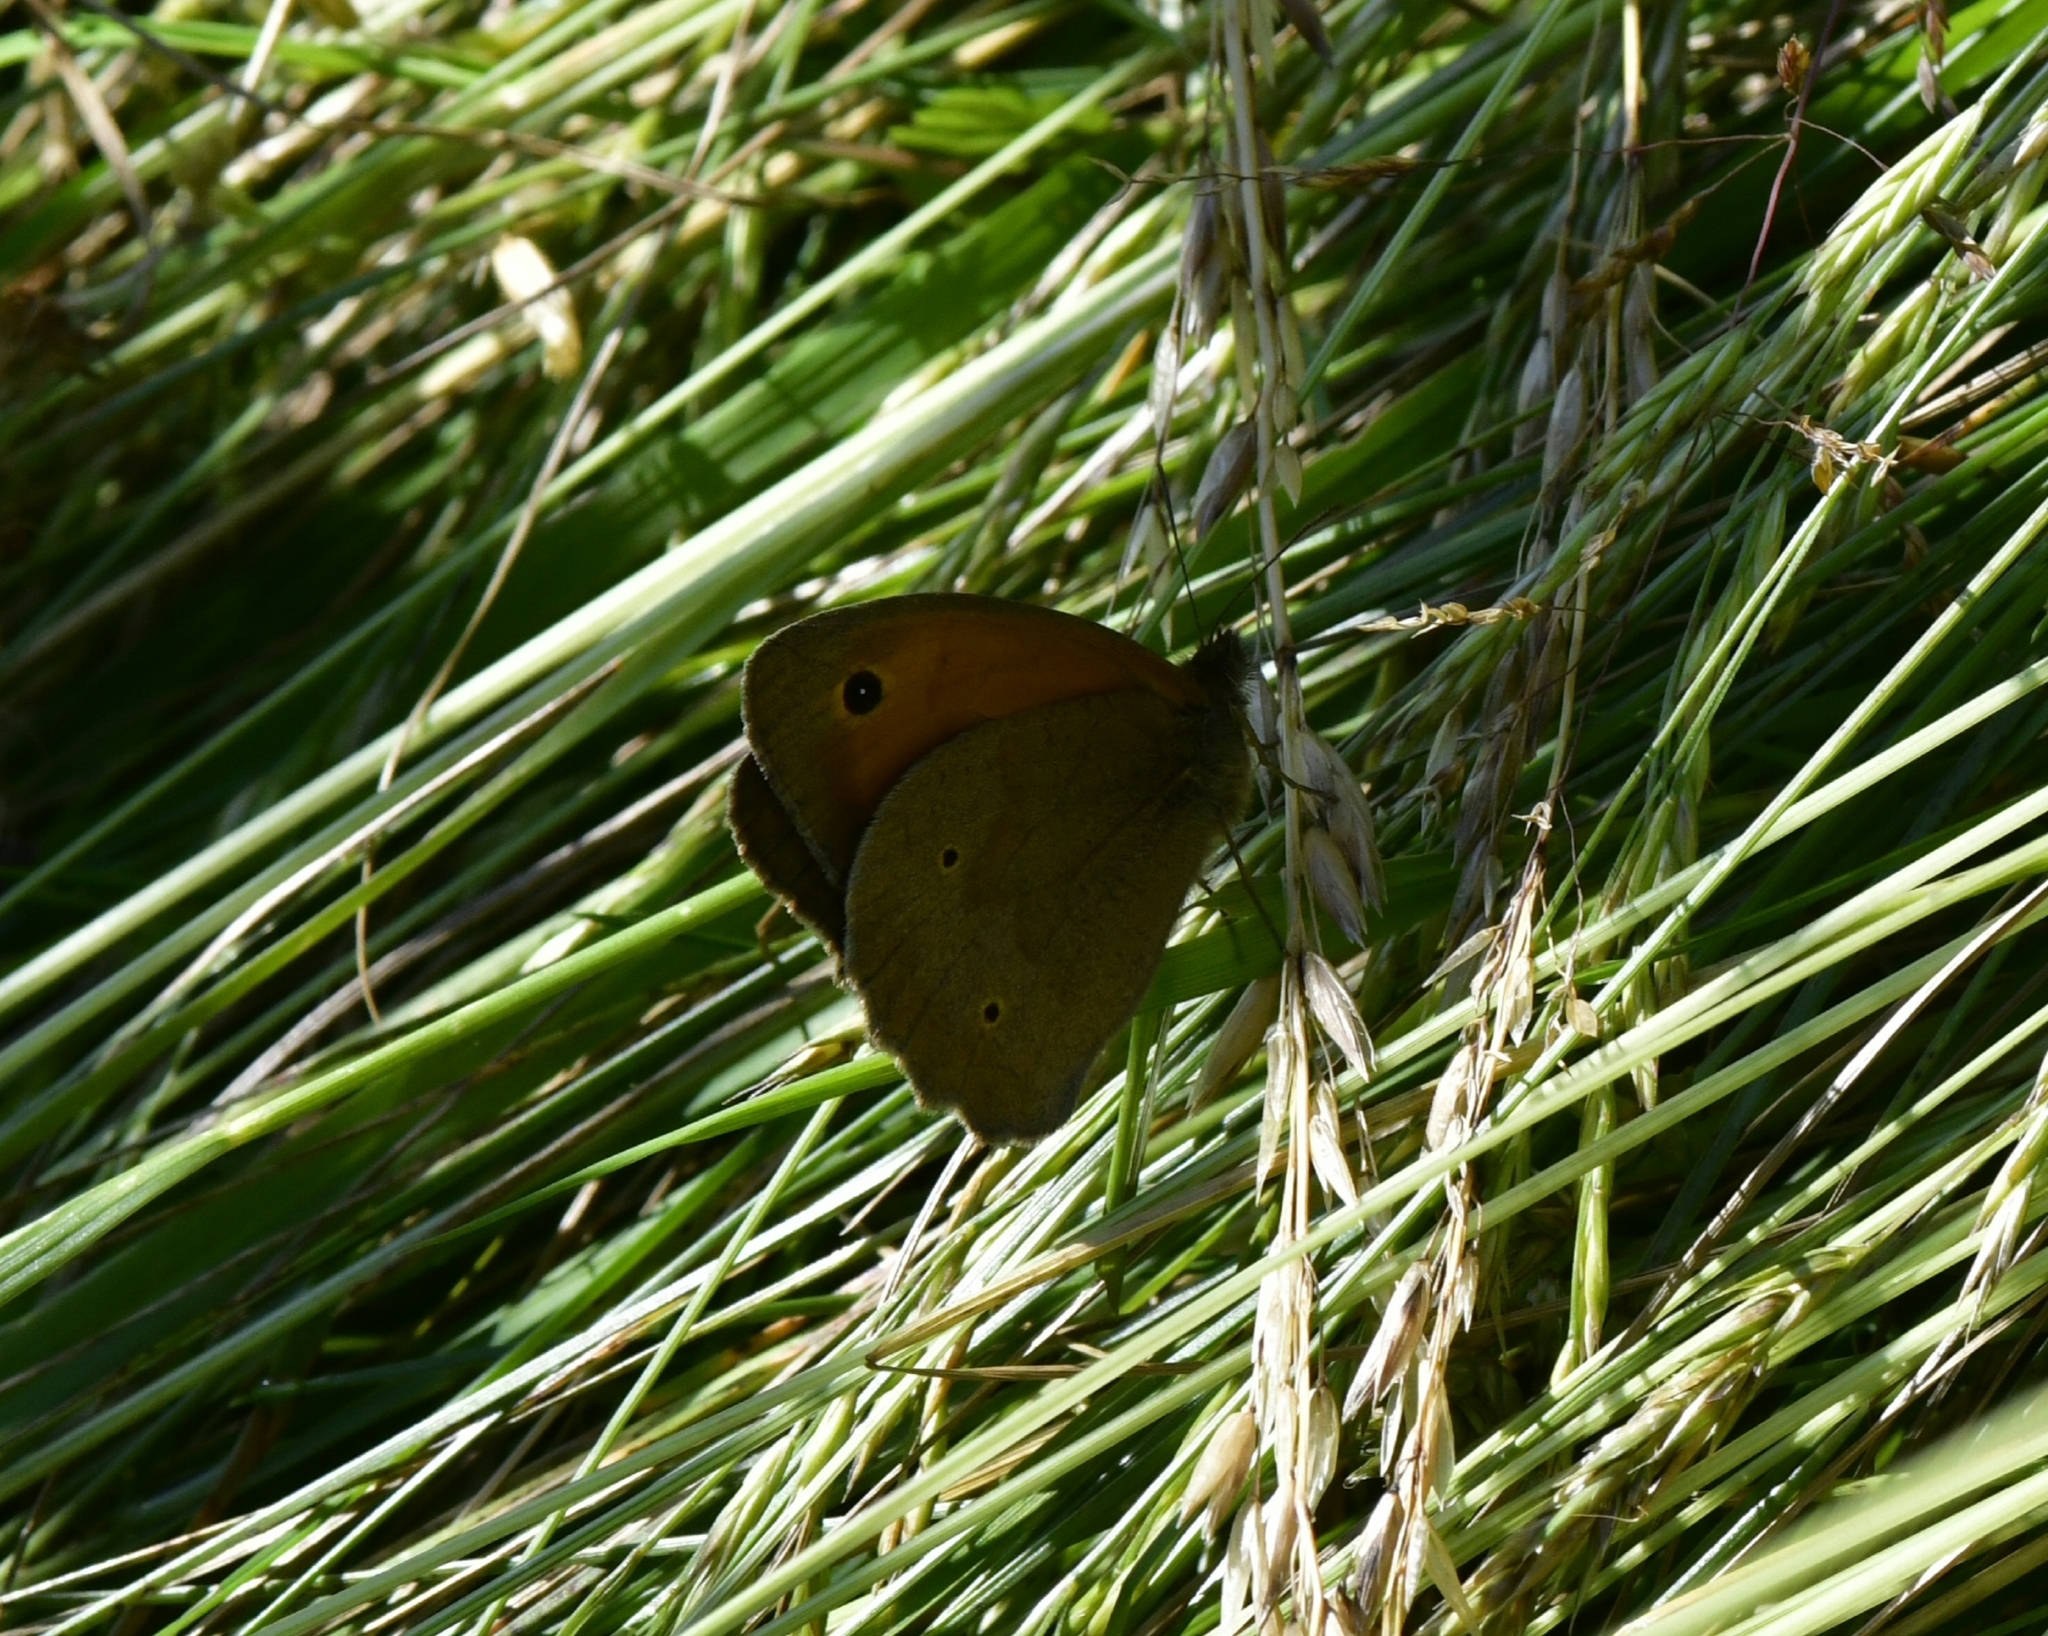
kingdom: Animalia
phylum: Arthropoda
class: Insecta
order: Lepidoptera
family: Nymphalidae
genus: Maniola
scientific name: Maniola jurtina
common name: Meadow brown
